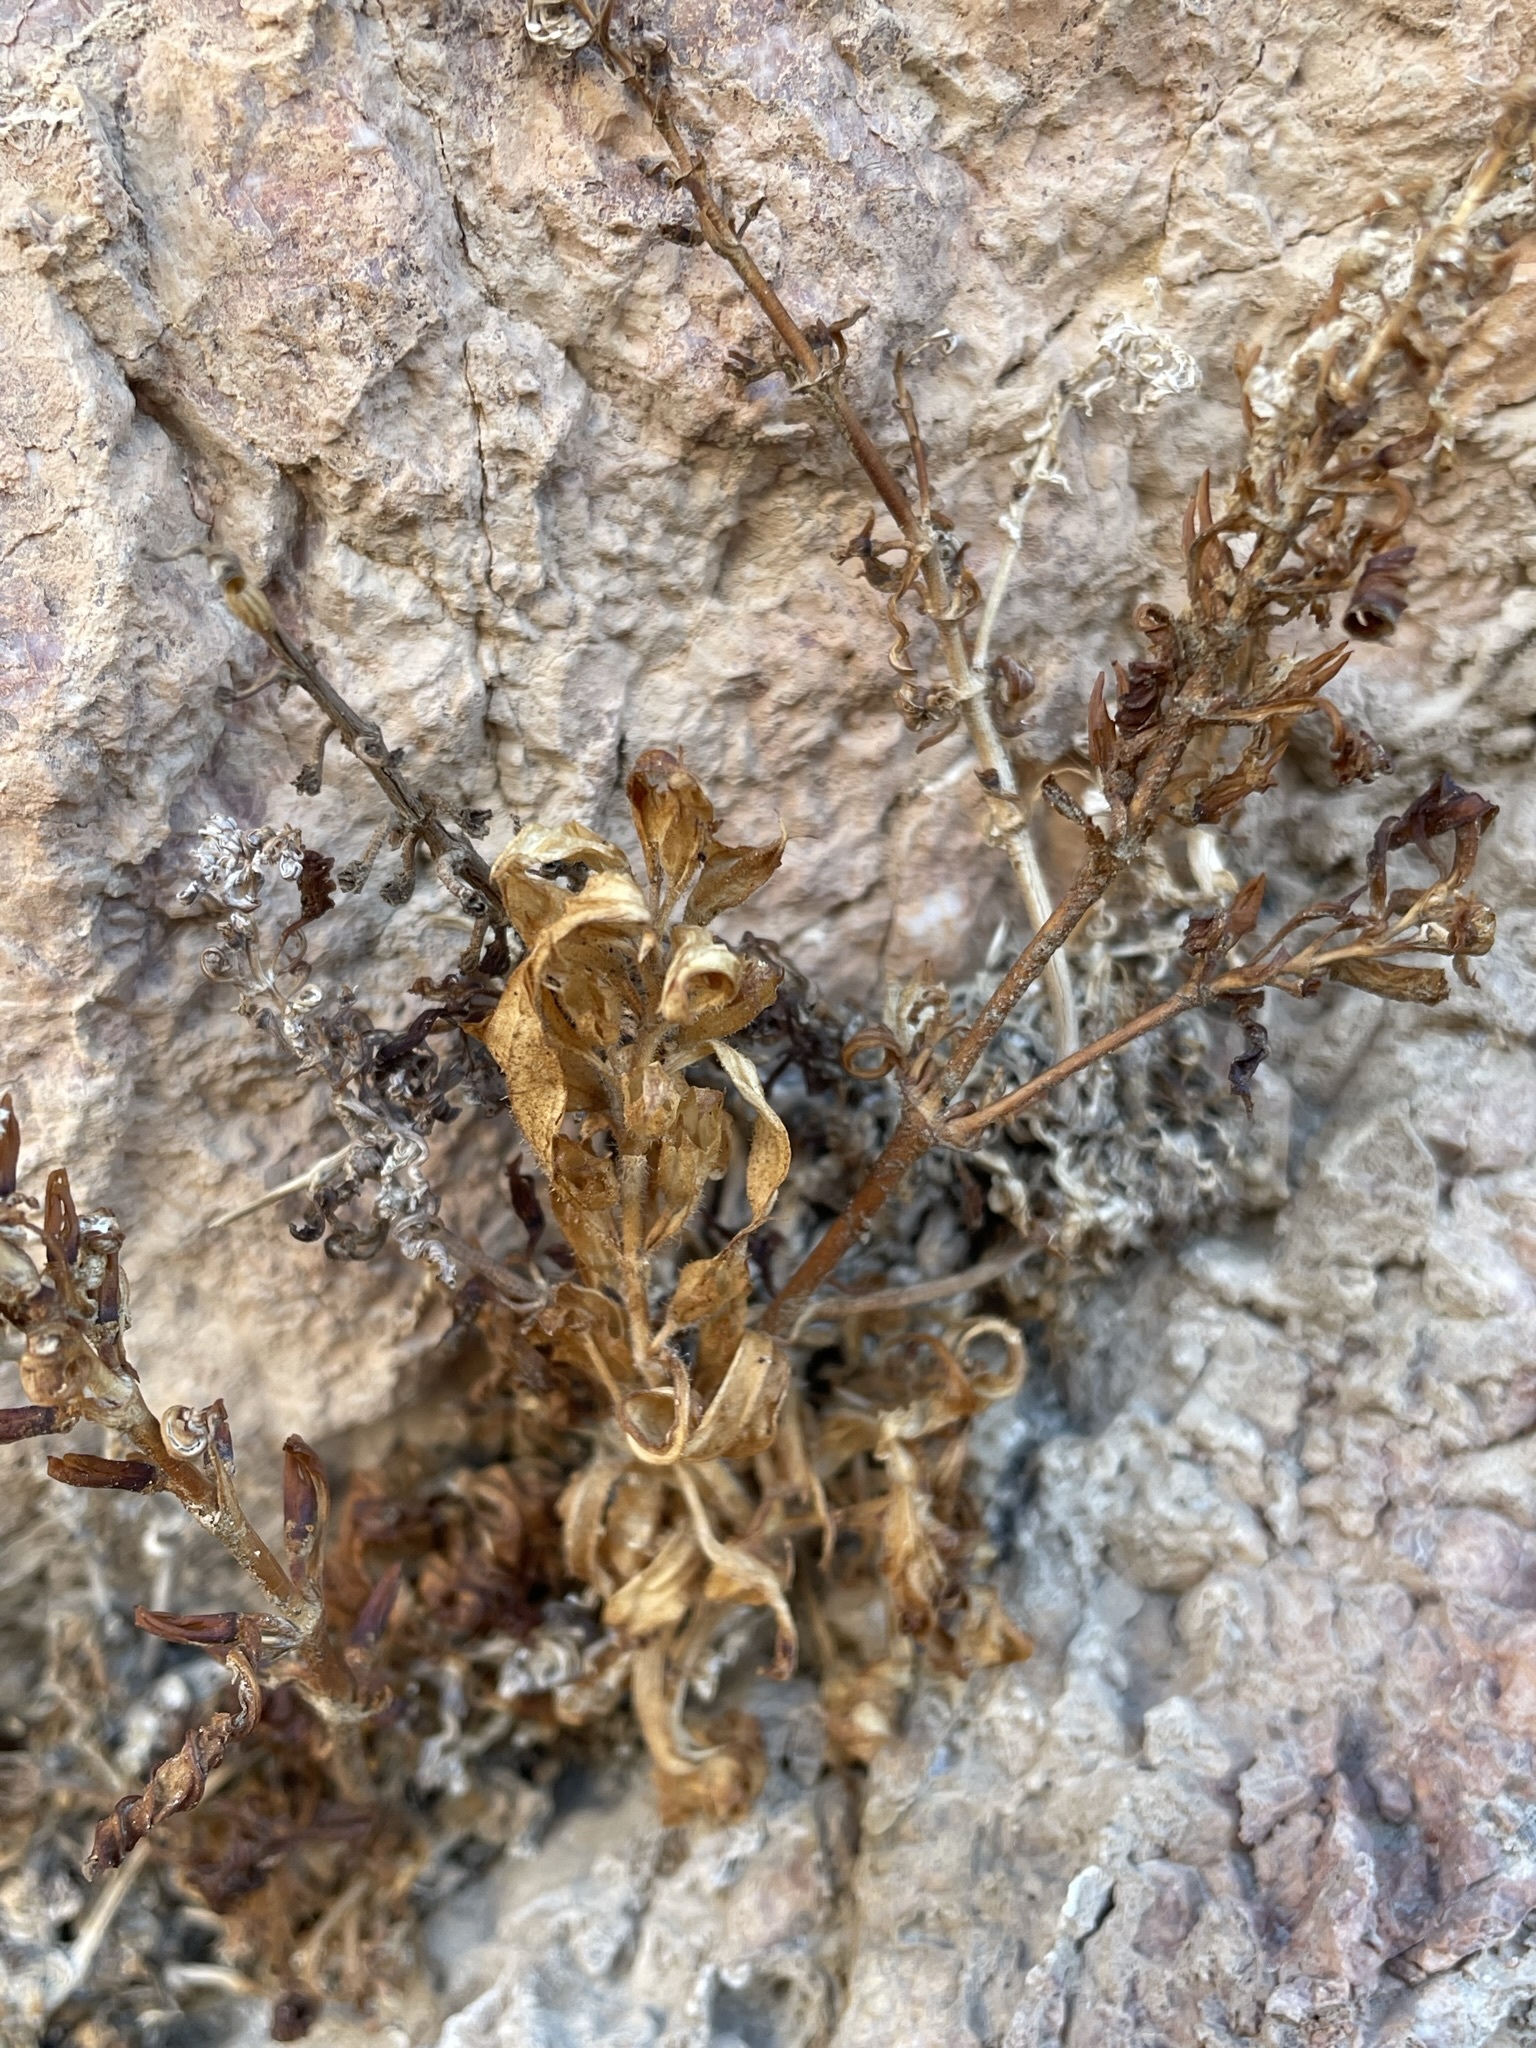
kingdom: Plantae
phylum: Tracheophyta
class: Magnoliopsida
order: Lamiales
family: Phrymaceae
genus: Diplacus
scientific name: Diplacus rupicola
